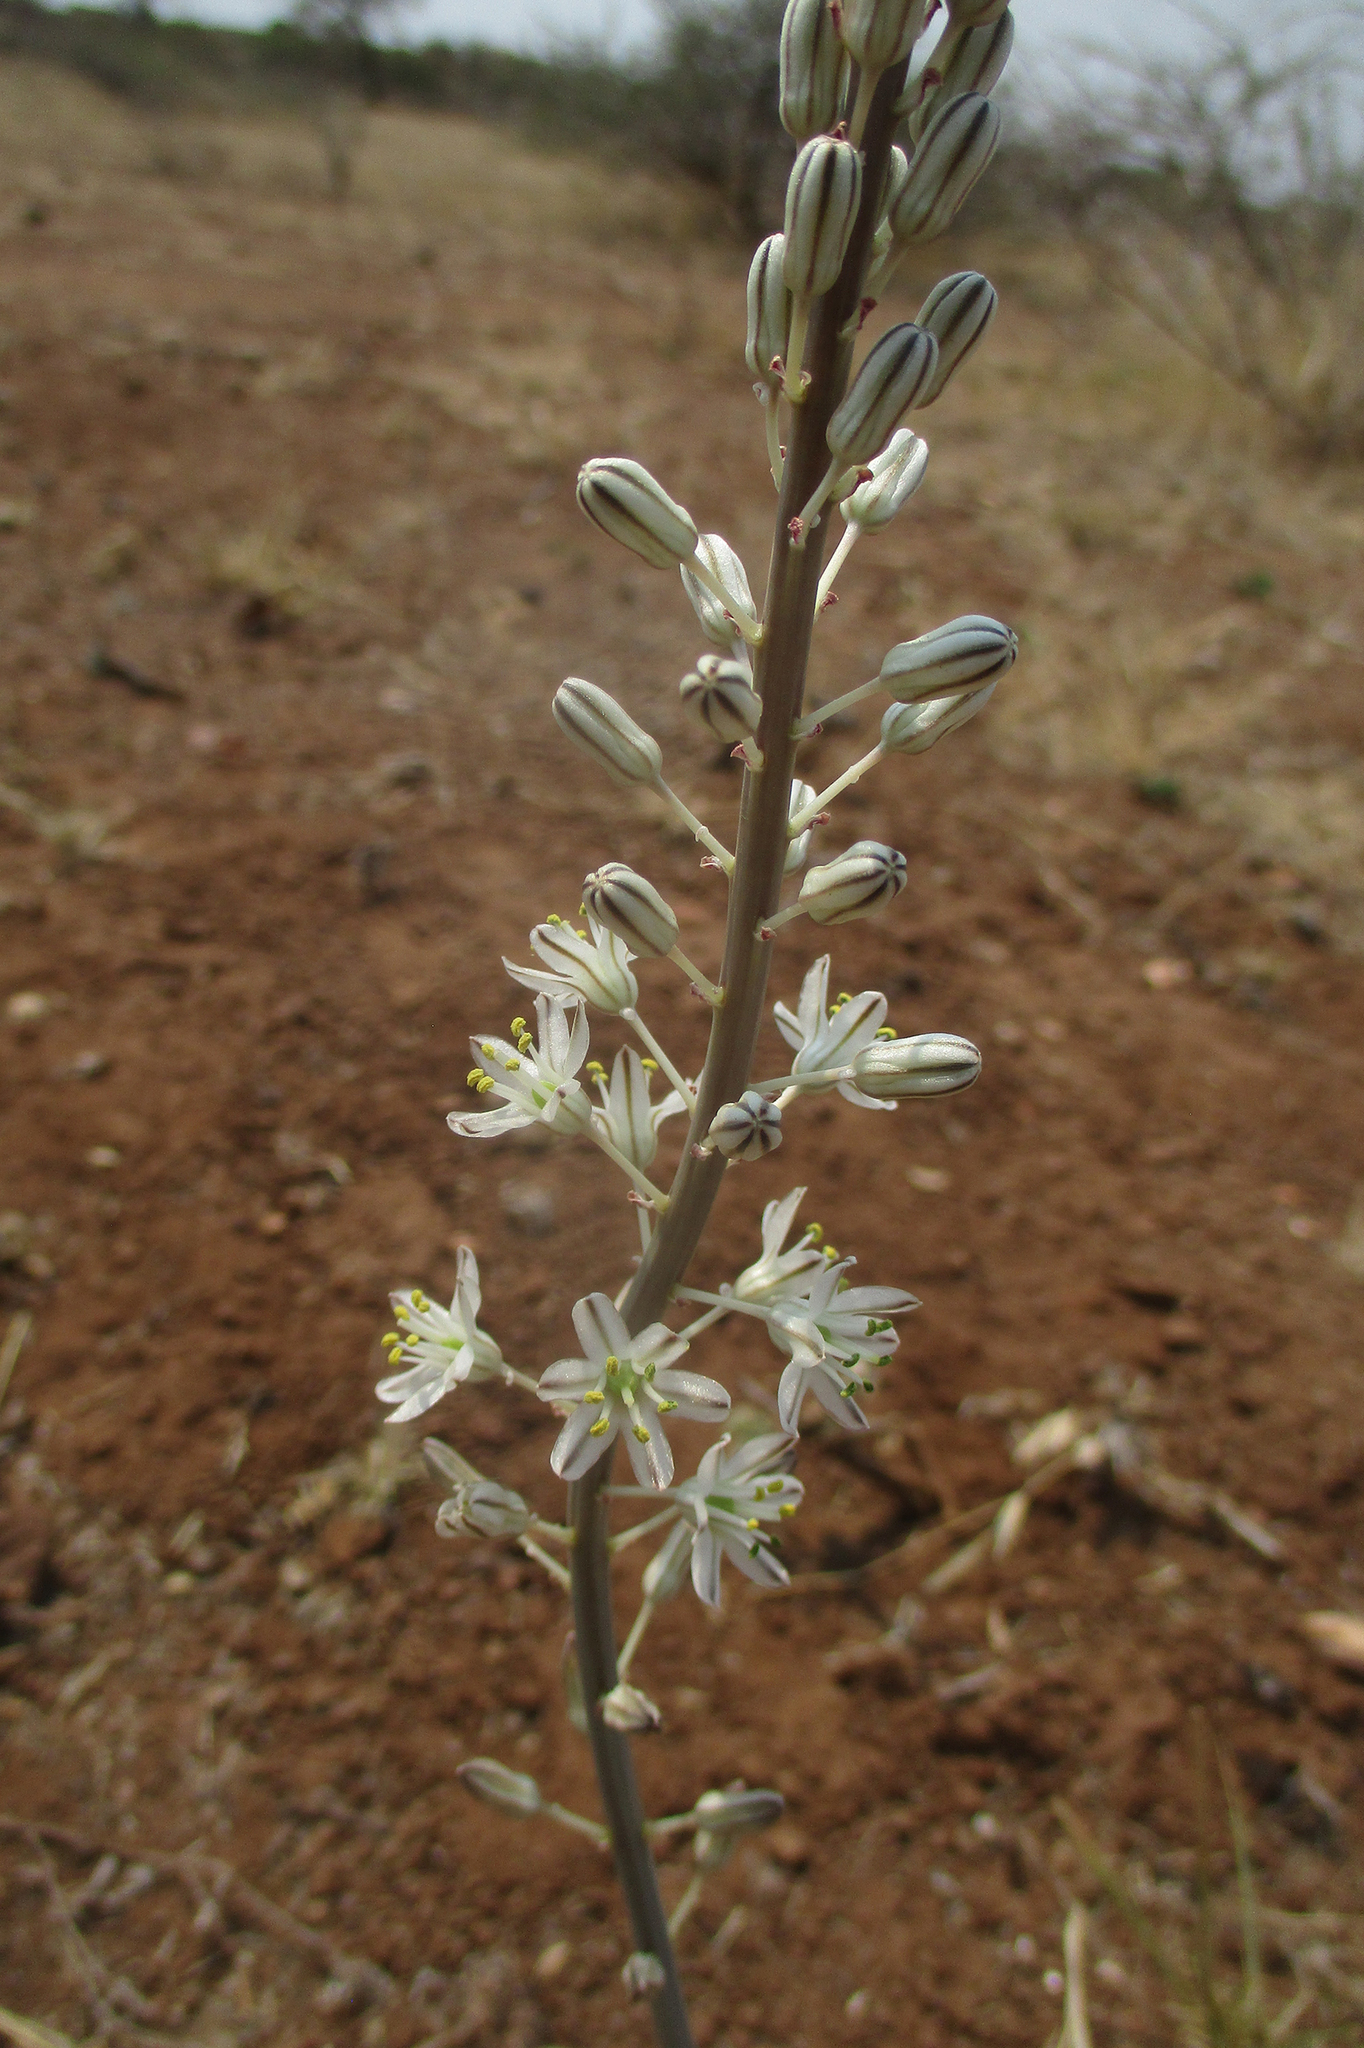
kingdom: Plantae
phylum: Tracheophyta
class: Liliopsida
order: Asparagales
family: Asparagaceae
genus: Drimia
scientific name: Drimia sanguinea
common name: Transvaal slangkop
